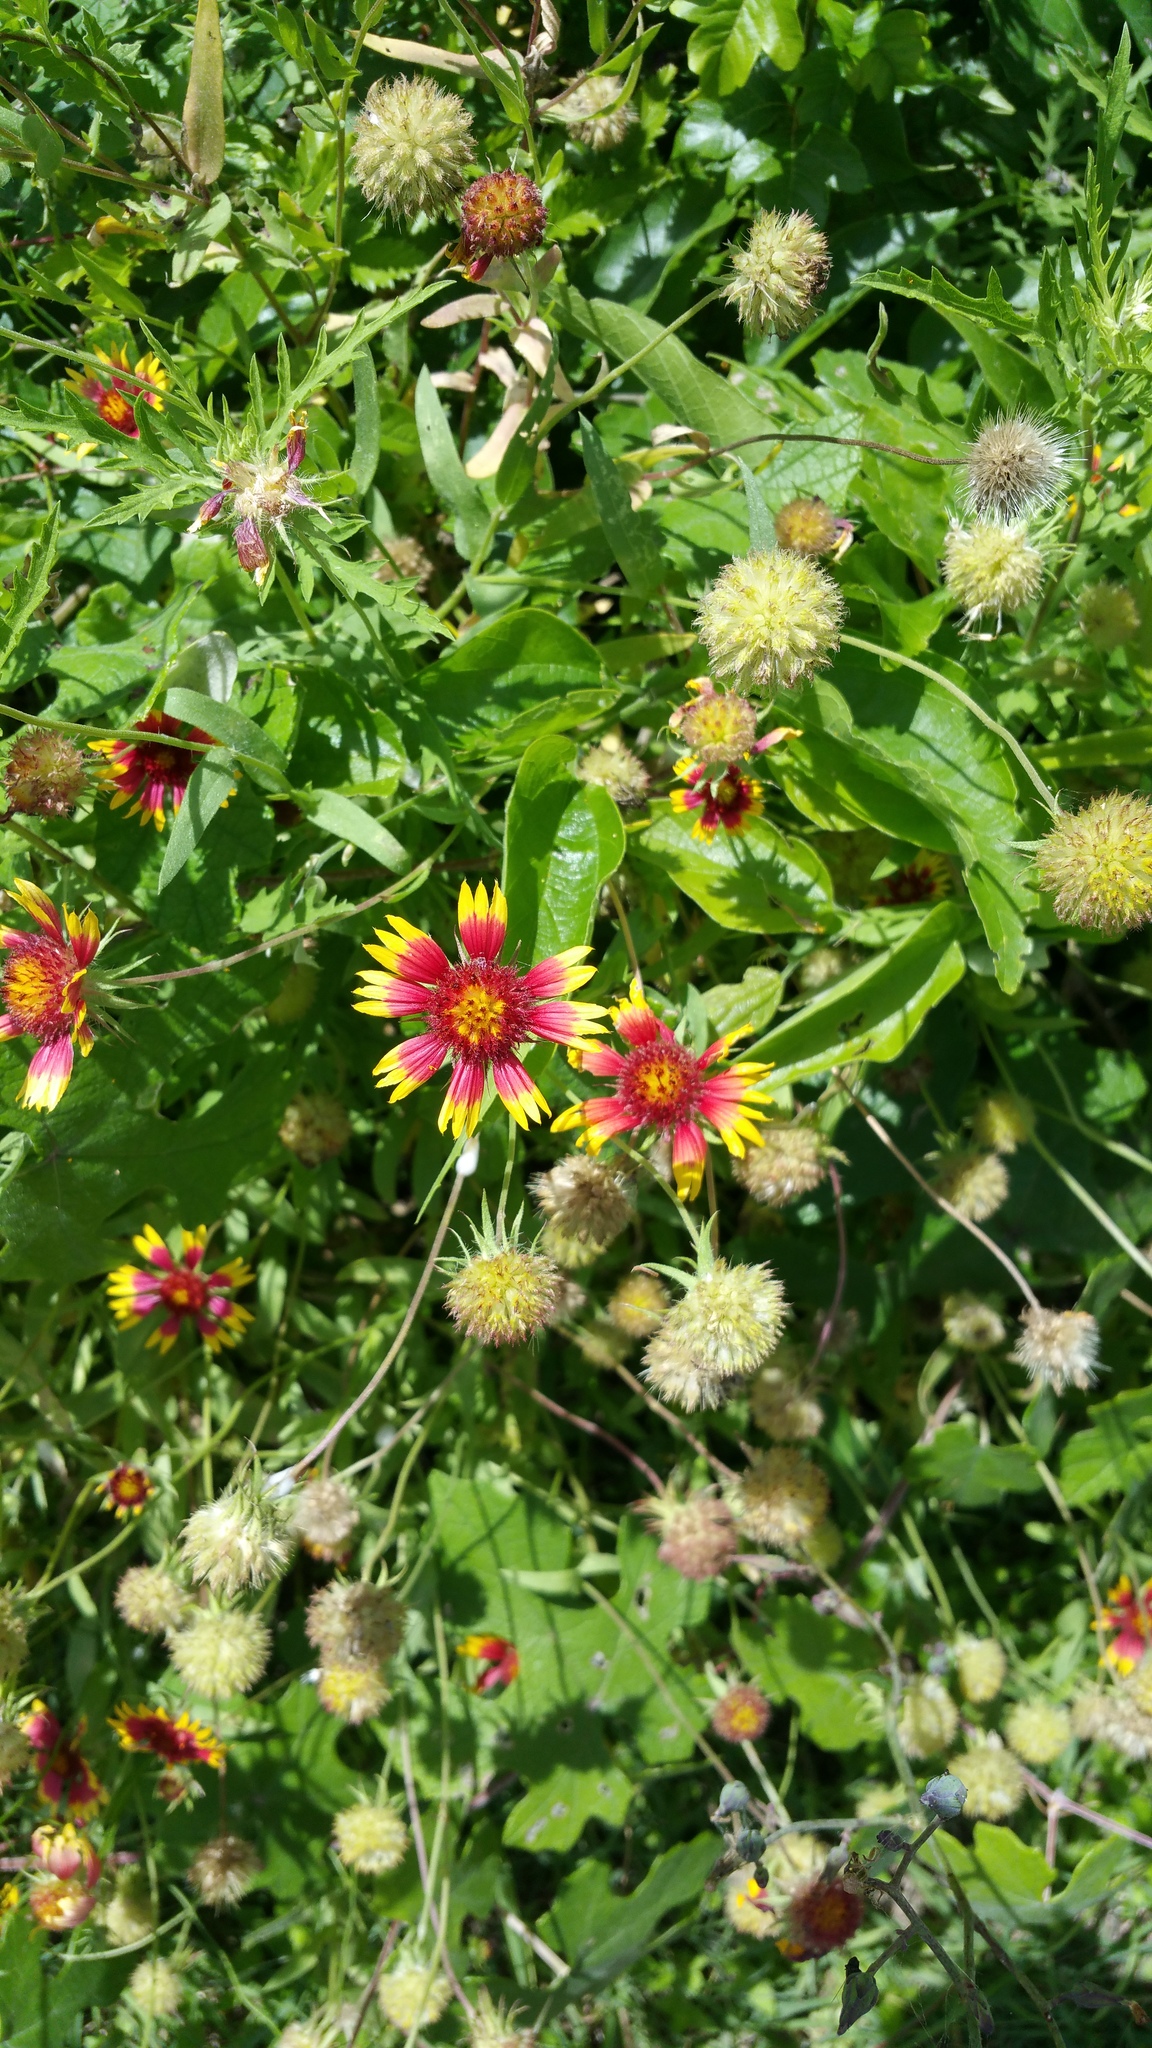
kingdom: Plantae
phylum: Tracheophyta
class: Magnoliopsida
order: Asterales
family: Asteraceae
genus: Gaillardia
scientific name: Gaillardia pulchella
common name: Firewheel
